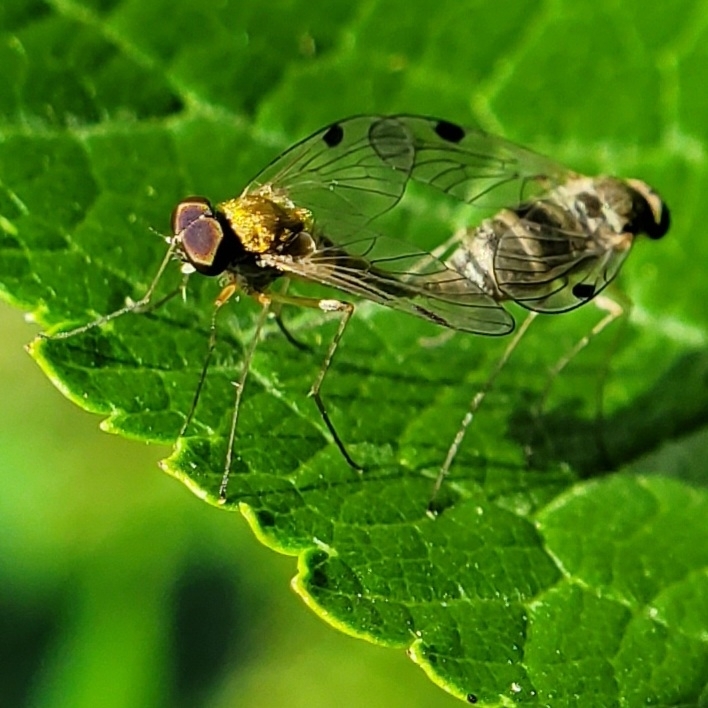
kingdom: Animalia
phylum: Arthropoda
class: Insecta
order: Diptera
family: Rhagionidae
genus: Chrysopilus
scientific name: Chrysopilus modestus
